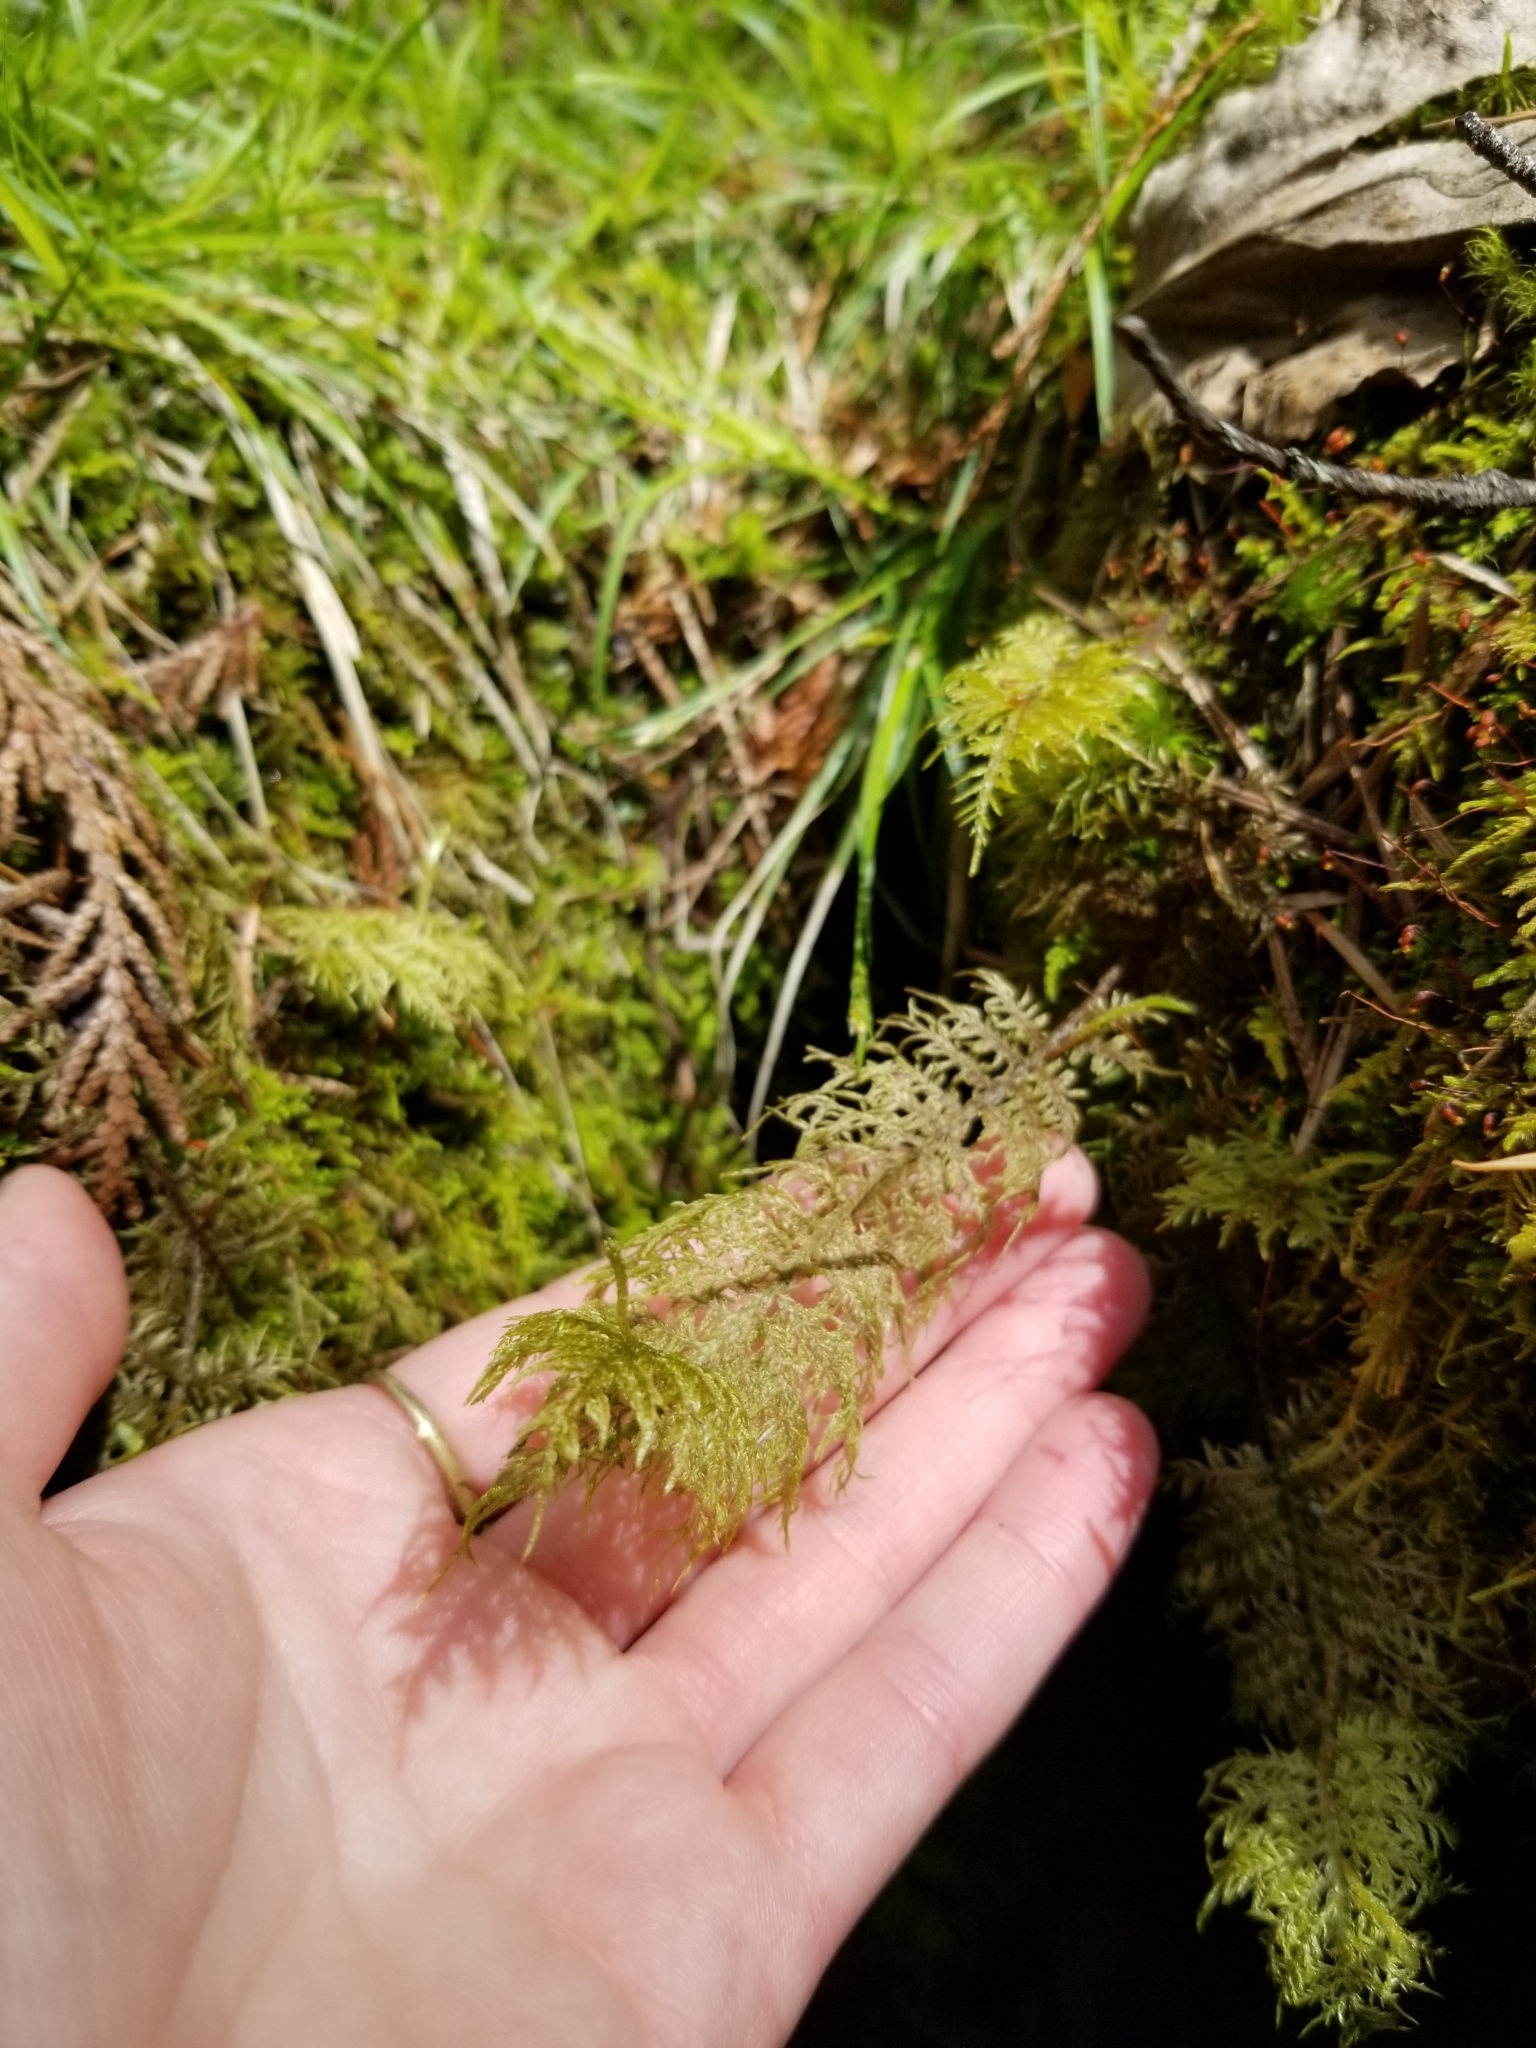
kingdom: Plantae
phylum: Bryophyta
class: Bryopsida
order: Hypnales
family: Hylocomiaceae
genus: Hylocomium
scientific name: Hylocomium splendens
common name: Stairstep moss
